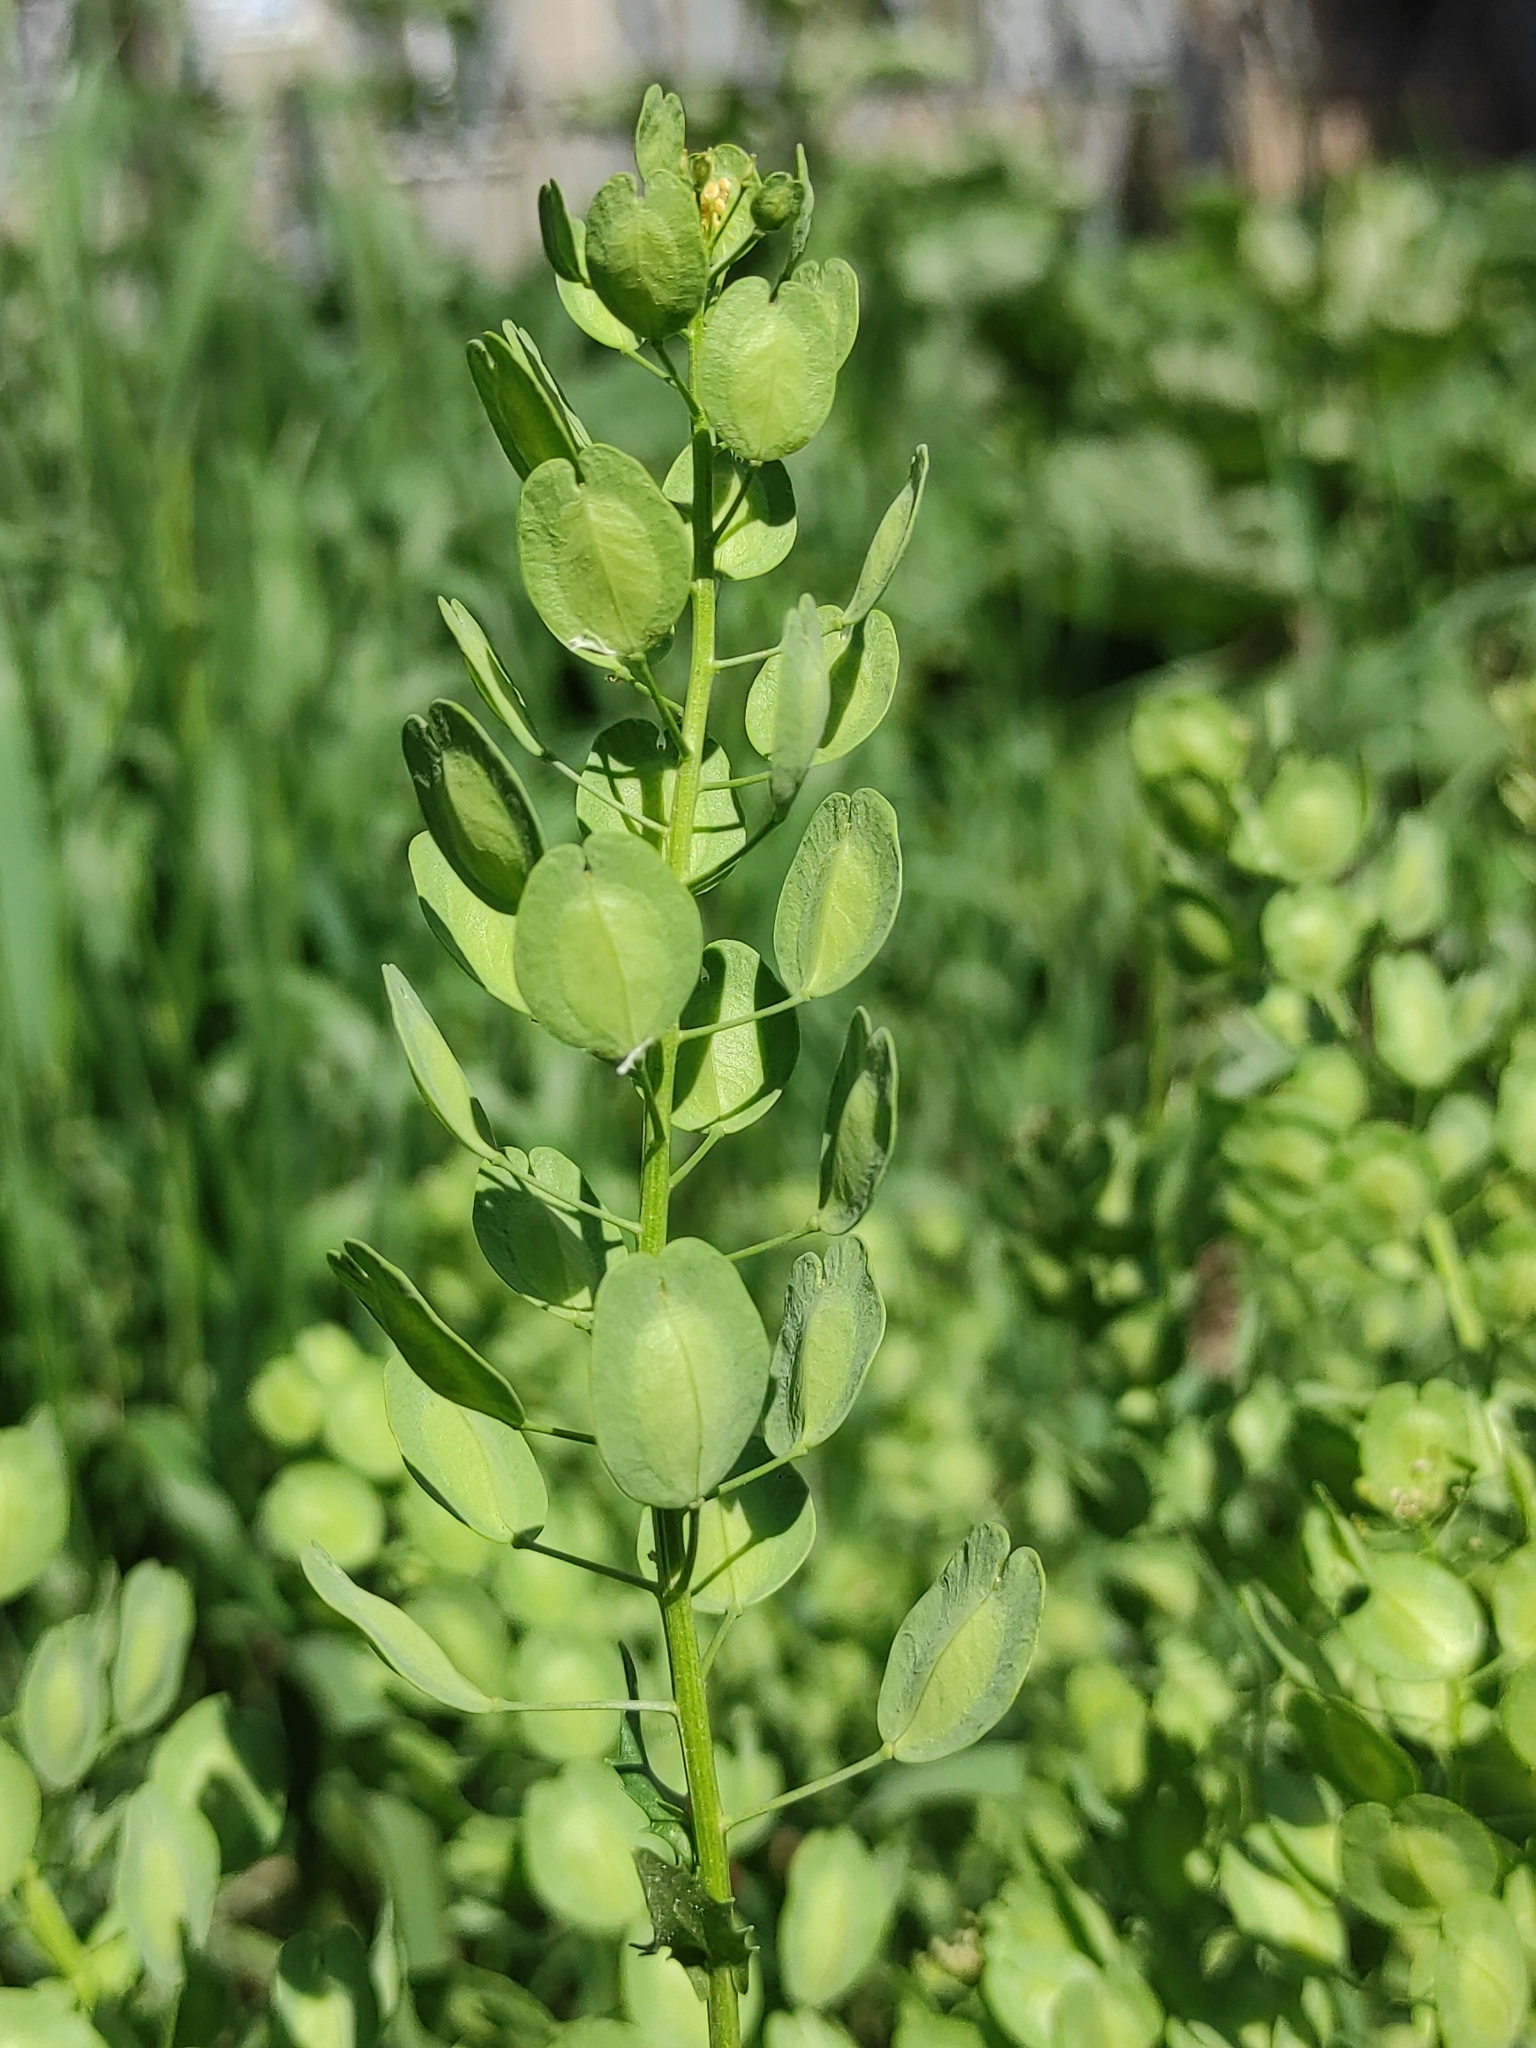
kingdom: Plantae
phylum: Tracheophyta
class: Magnoliopsida
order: Brassicales
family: Brassicaceae
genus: Thlaspi
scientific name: Thlaspi arvense
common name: Field pennycress
